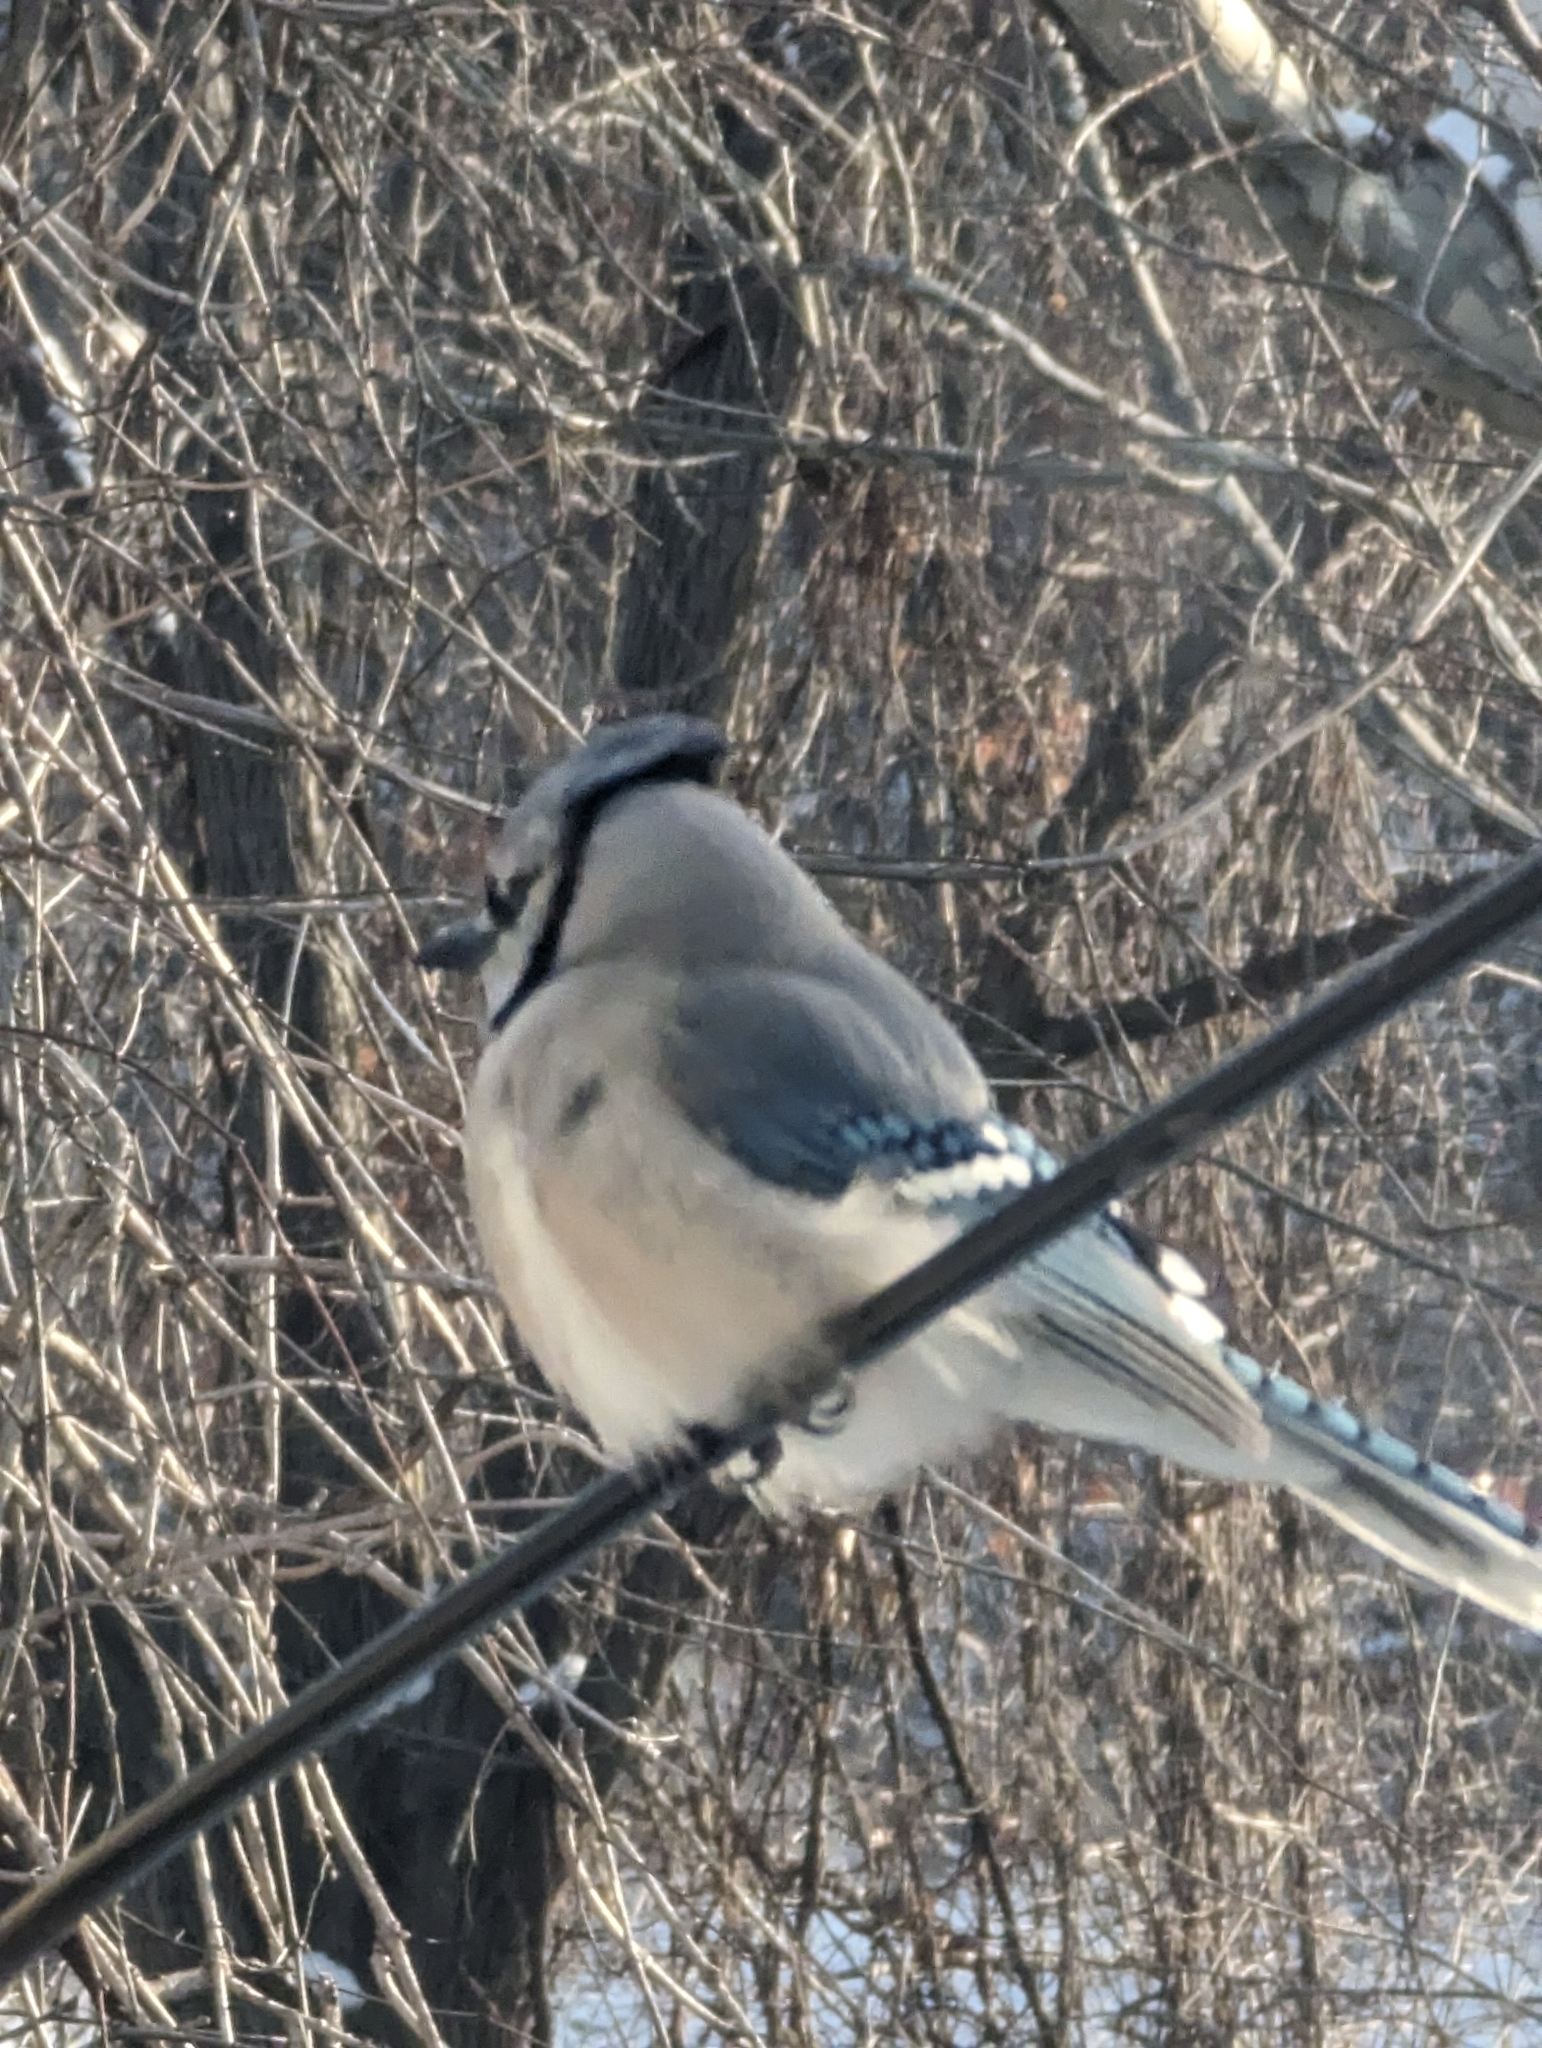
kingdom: Animalia
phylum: Chordata
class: Aves
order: Passeriformes
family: Corvidae
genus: Cyanocitta
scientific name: Cyanocitta cristata
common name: Blue jay
